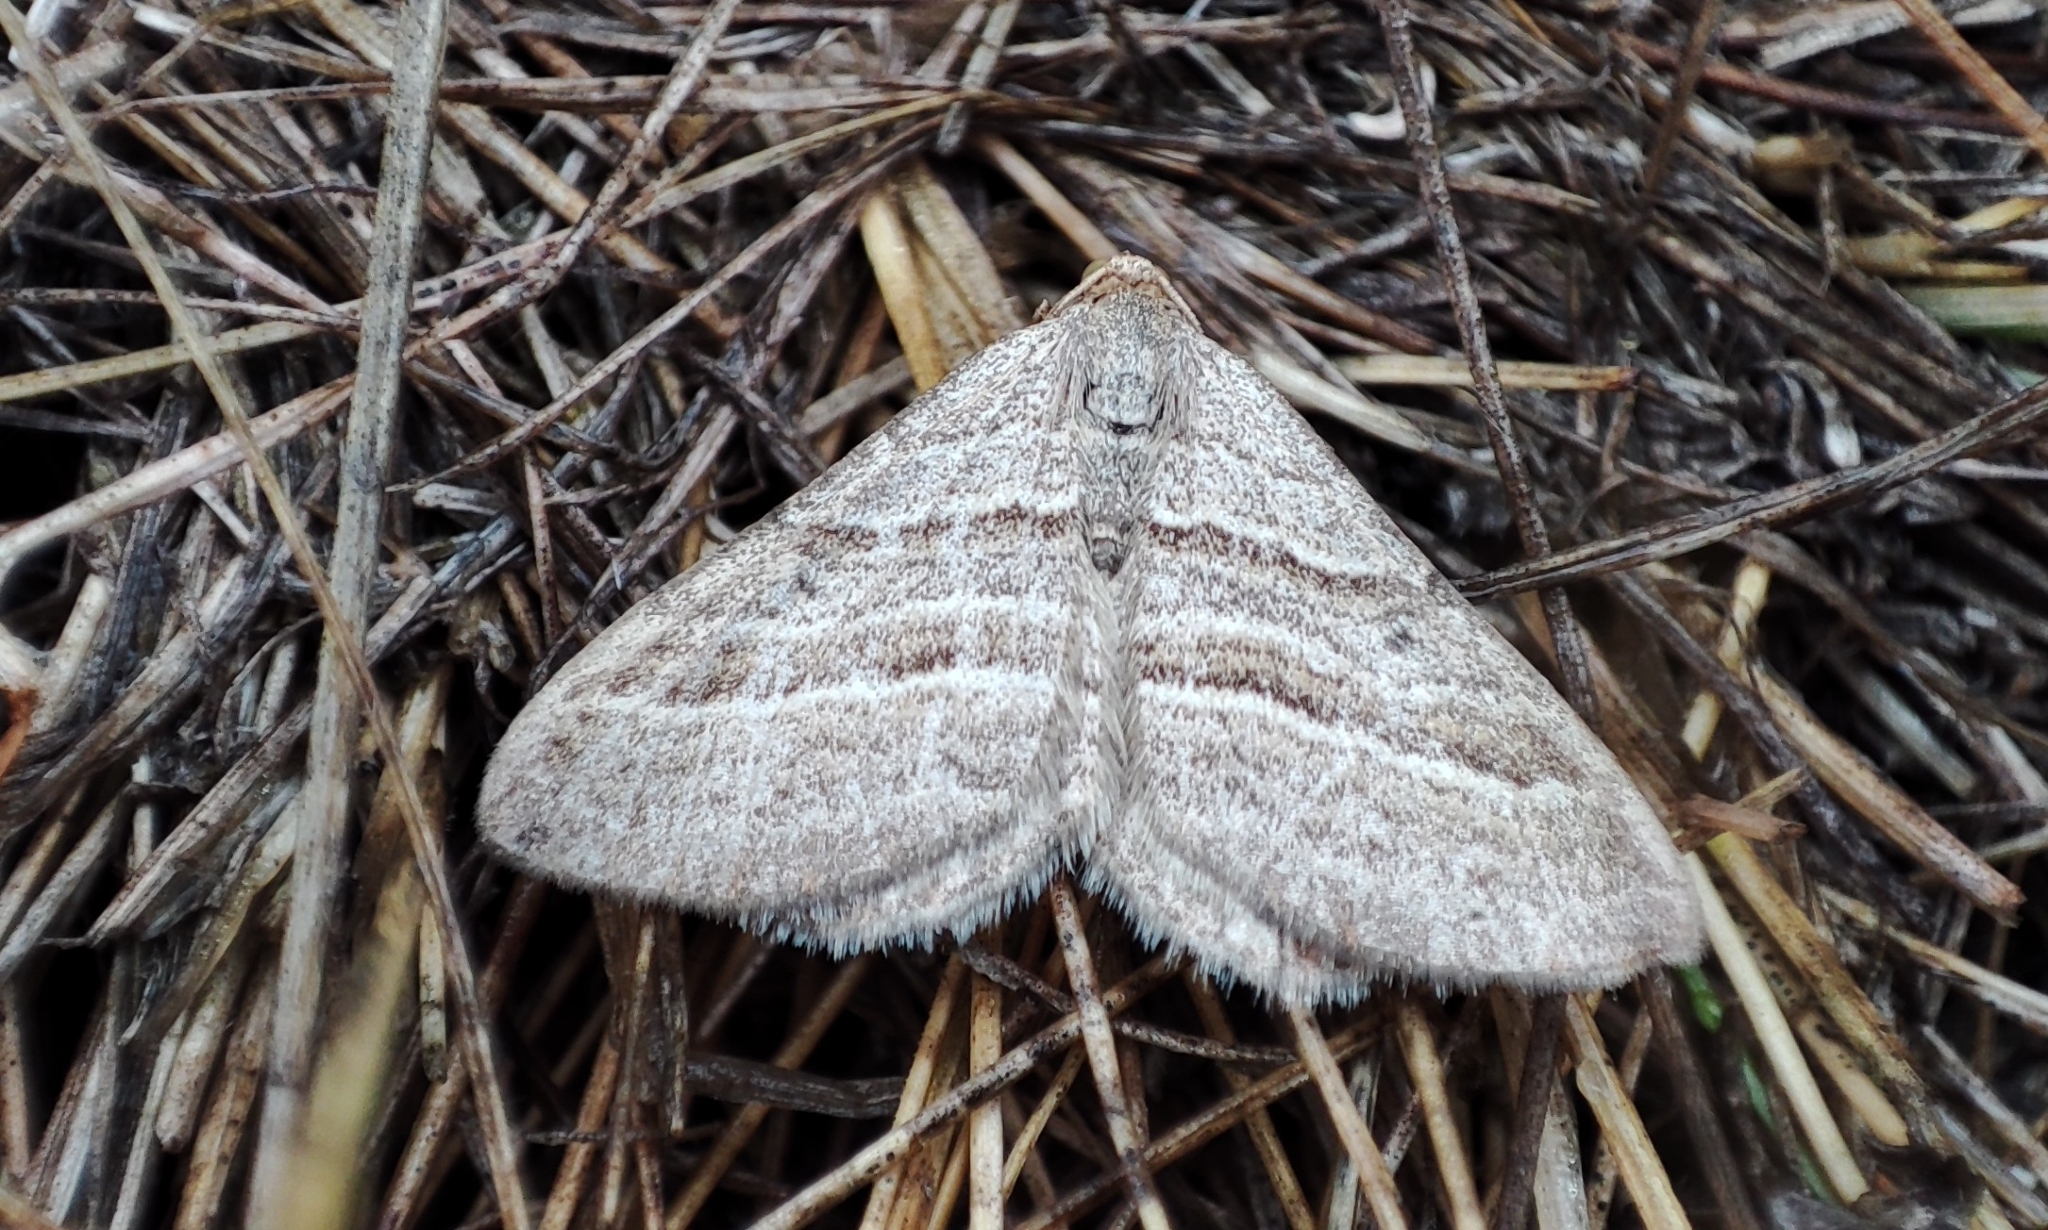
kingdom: Animalia
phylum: Arthropoda
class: Insecta
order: Lepidoptera
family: Geometridae
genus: Phibalapteryx
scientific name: Phibalapteryx virgata
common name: Oblique striped
